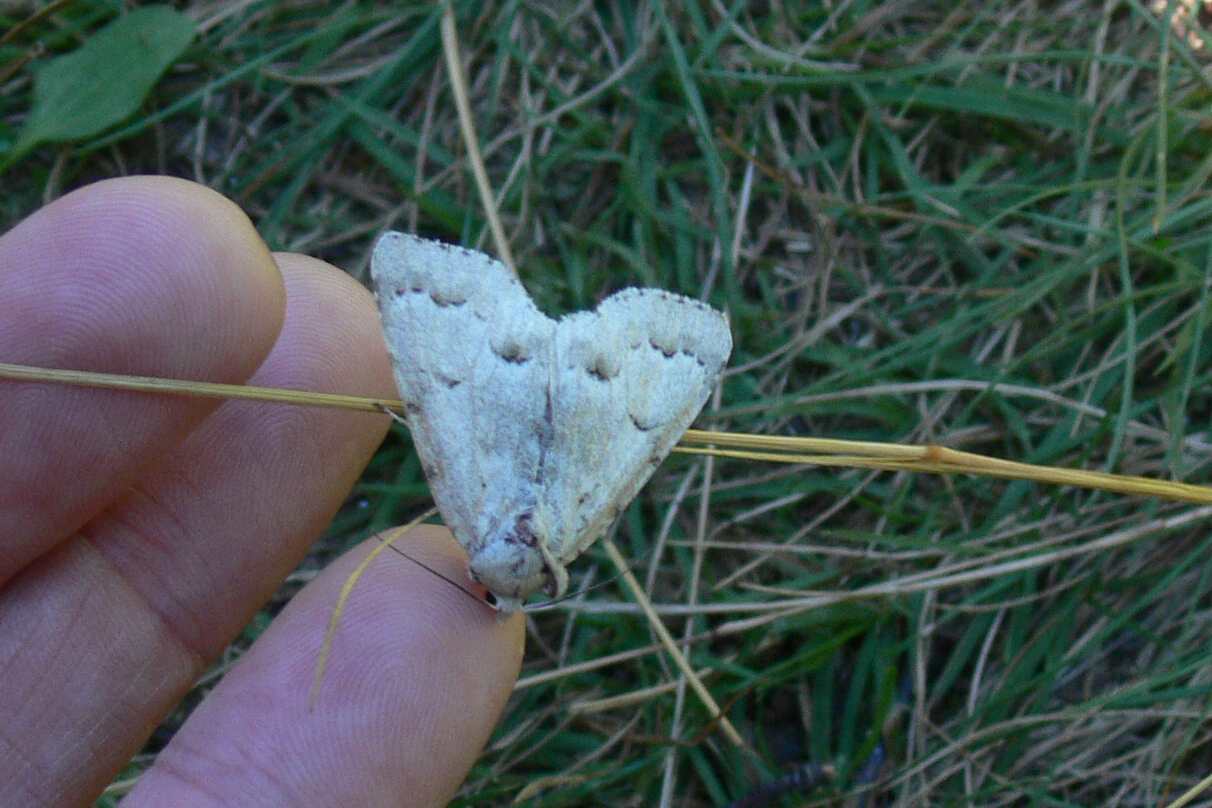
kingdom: Animalia
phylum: Arthropoda
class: Insecta
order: Lepidoptera
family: Noctuidae
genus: Acronicta
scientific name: Acronicta innotata
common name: Unmarked dagger
